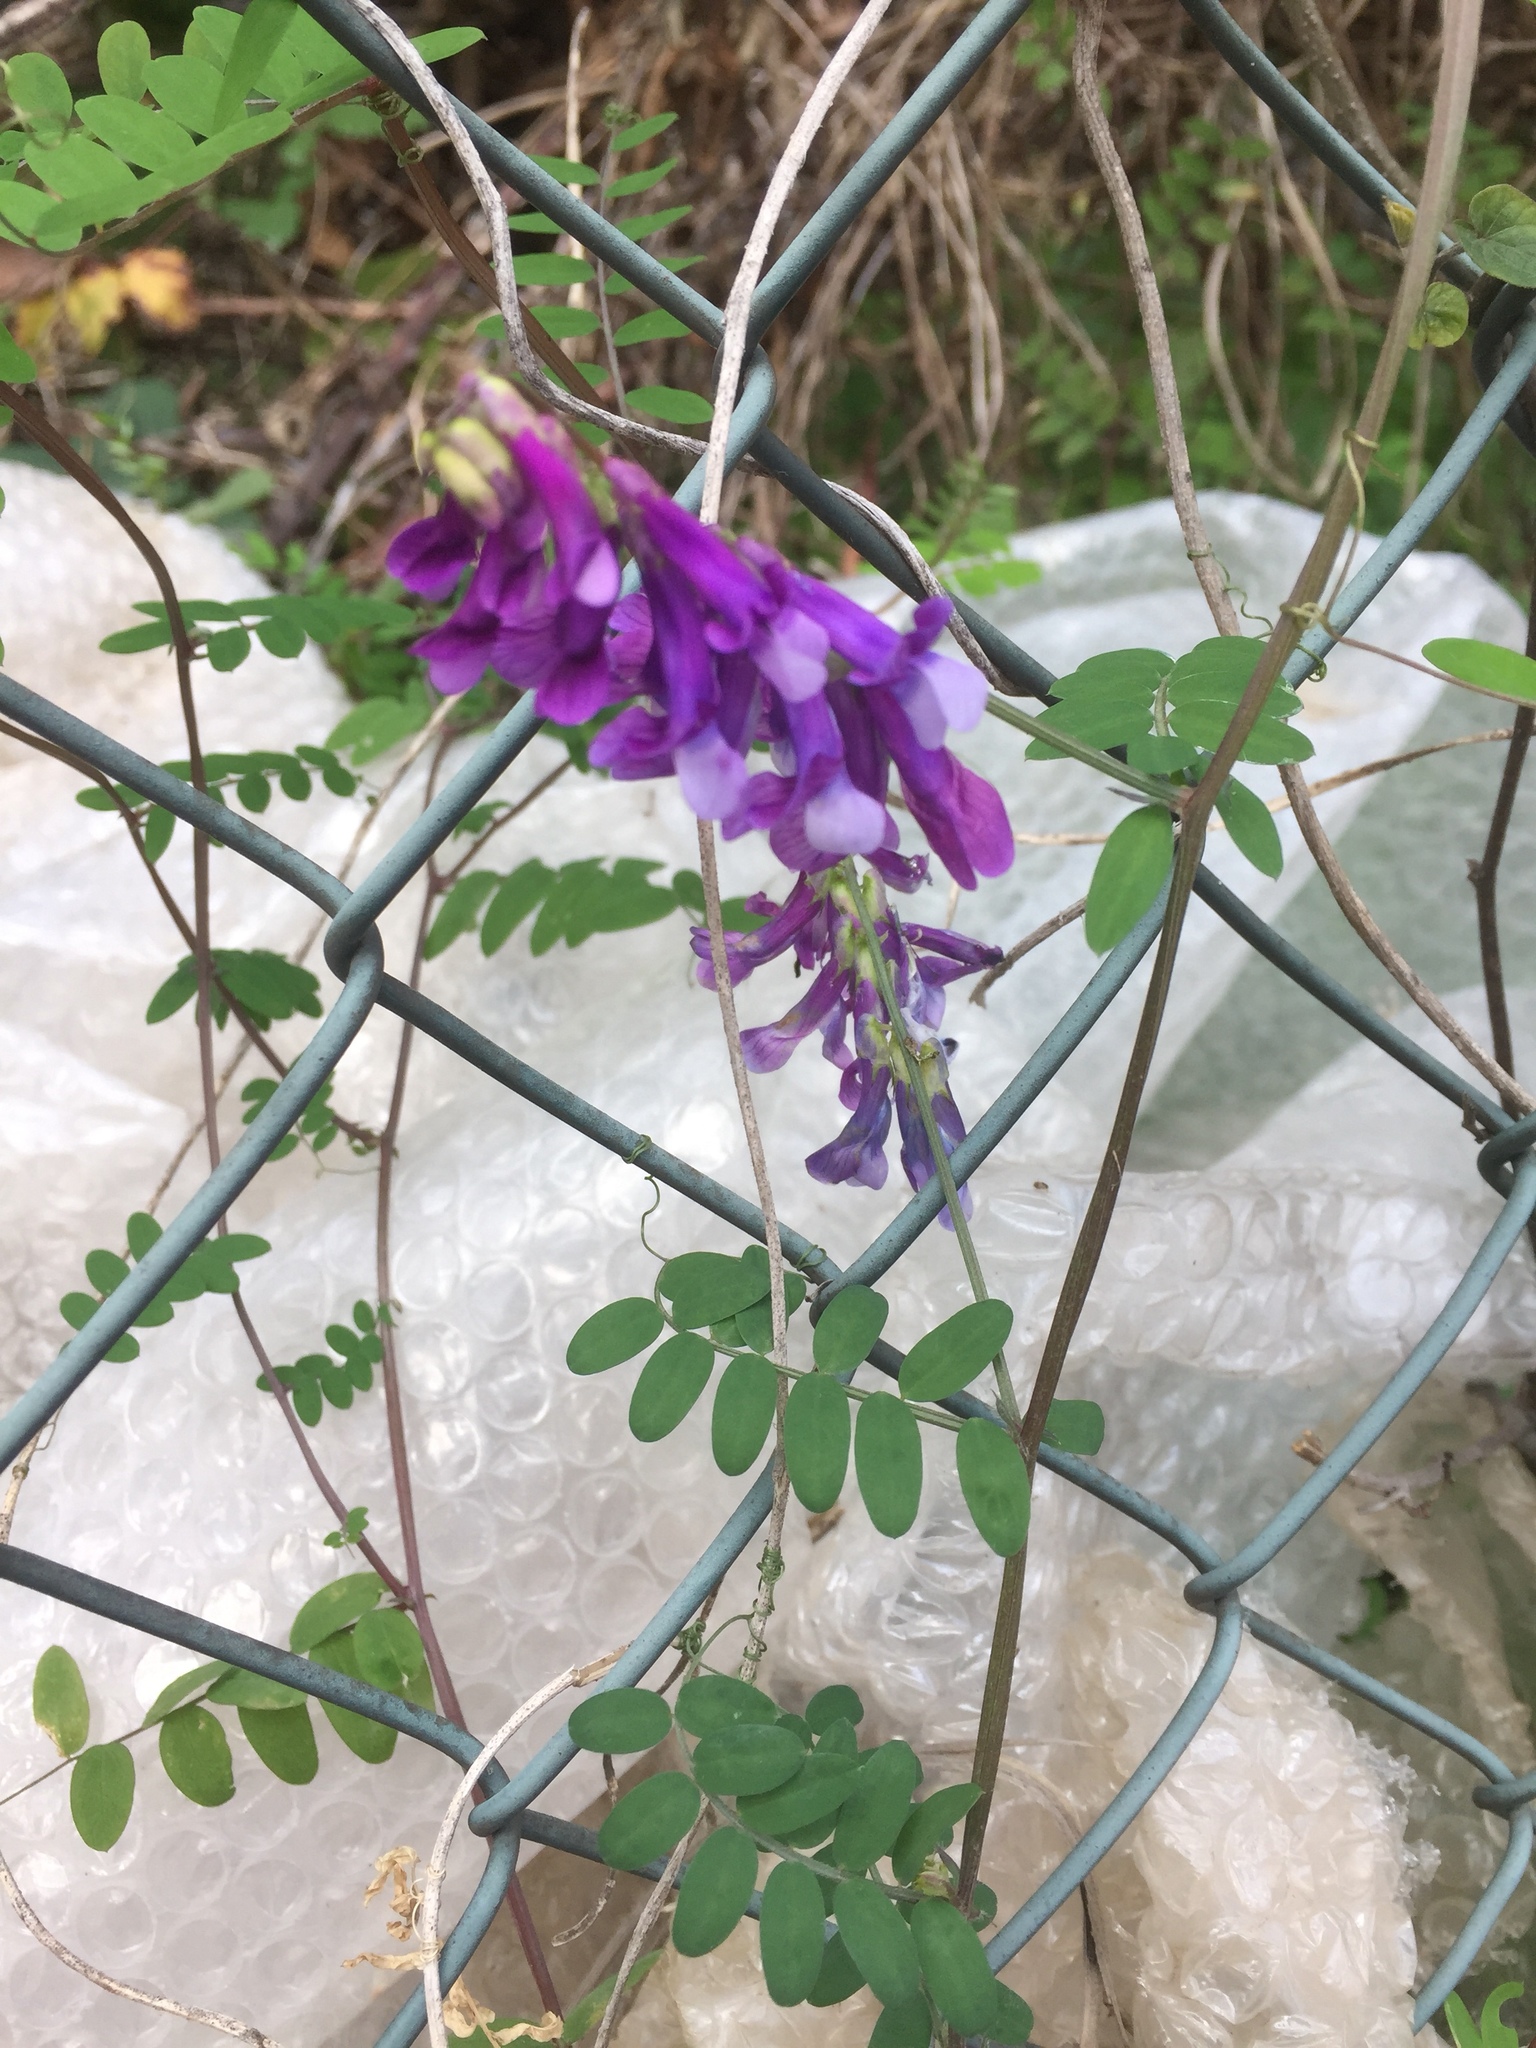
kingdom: Plantae
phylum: Tracheophyta
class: Magnoliopsida
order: Fabales
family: Fabaceae
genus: Vicia
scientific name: Vicia villosa
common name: Fodder vetch
